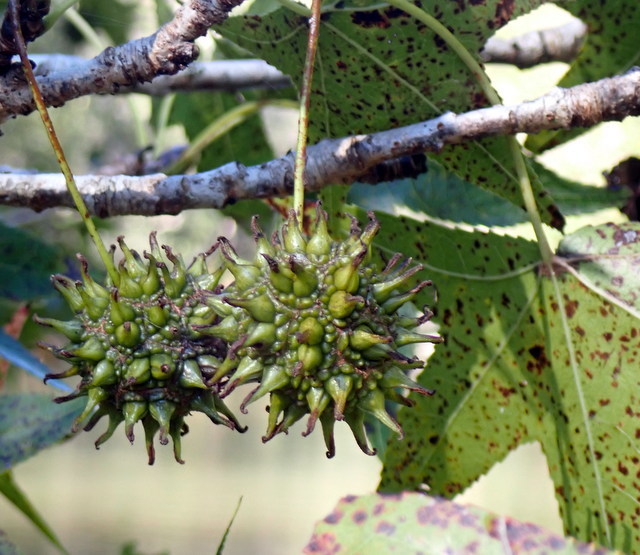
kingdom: Plantae
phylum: Tracheophyta
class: Magnoliopsida
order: Saxifragales
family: Altingiaceae
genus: Liquidambar
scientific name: Liquidambar styraciflua
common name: Sweet gum
